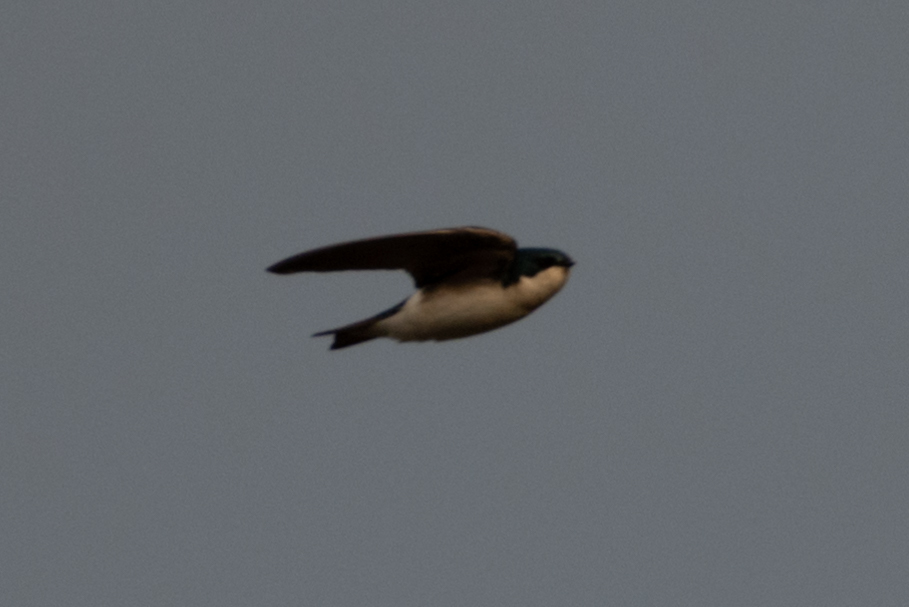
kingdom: Animalia
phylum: Chordata
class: Aves
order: Passeriformes
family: Hirundinidae
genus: Tachycineta
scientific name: Tachycineta bicolor
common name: Tree swallow
